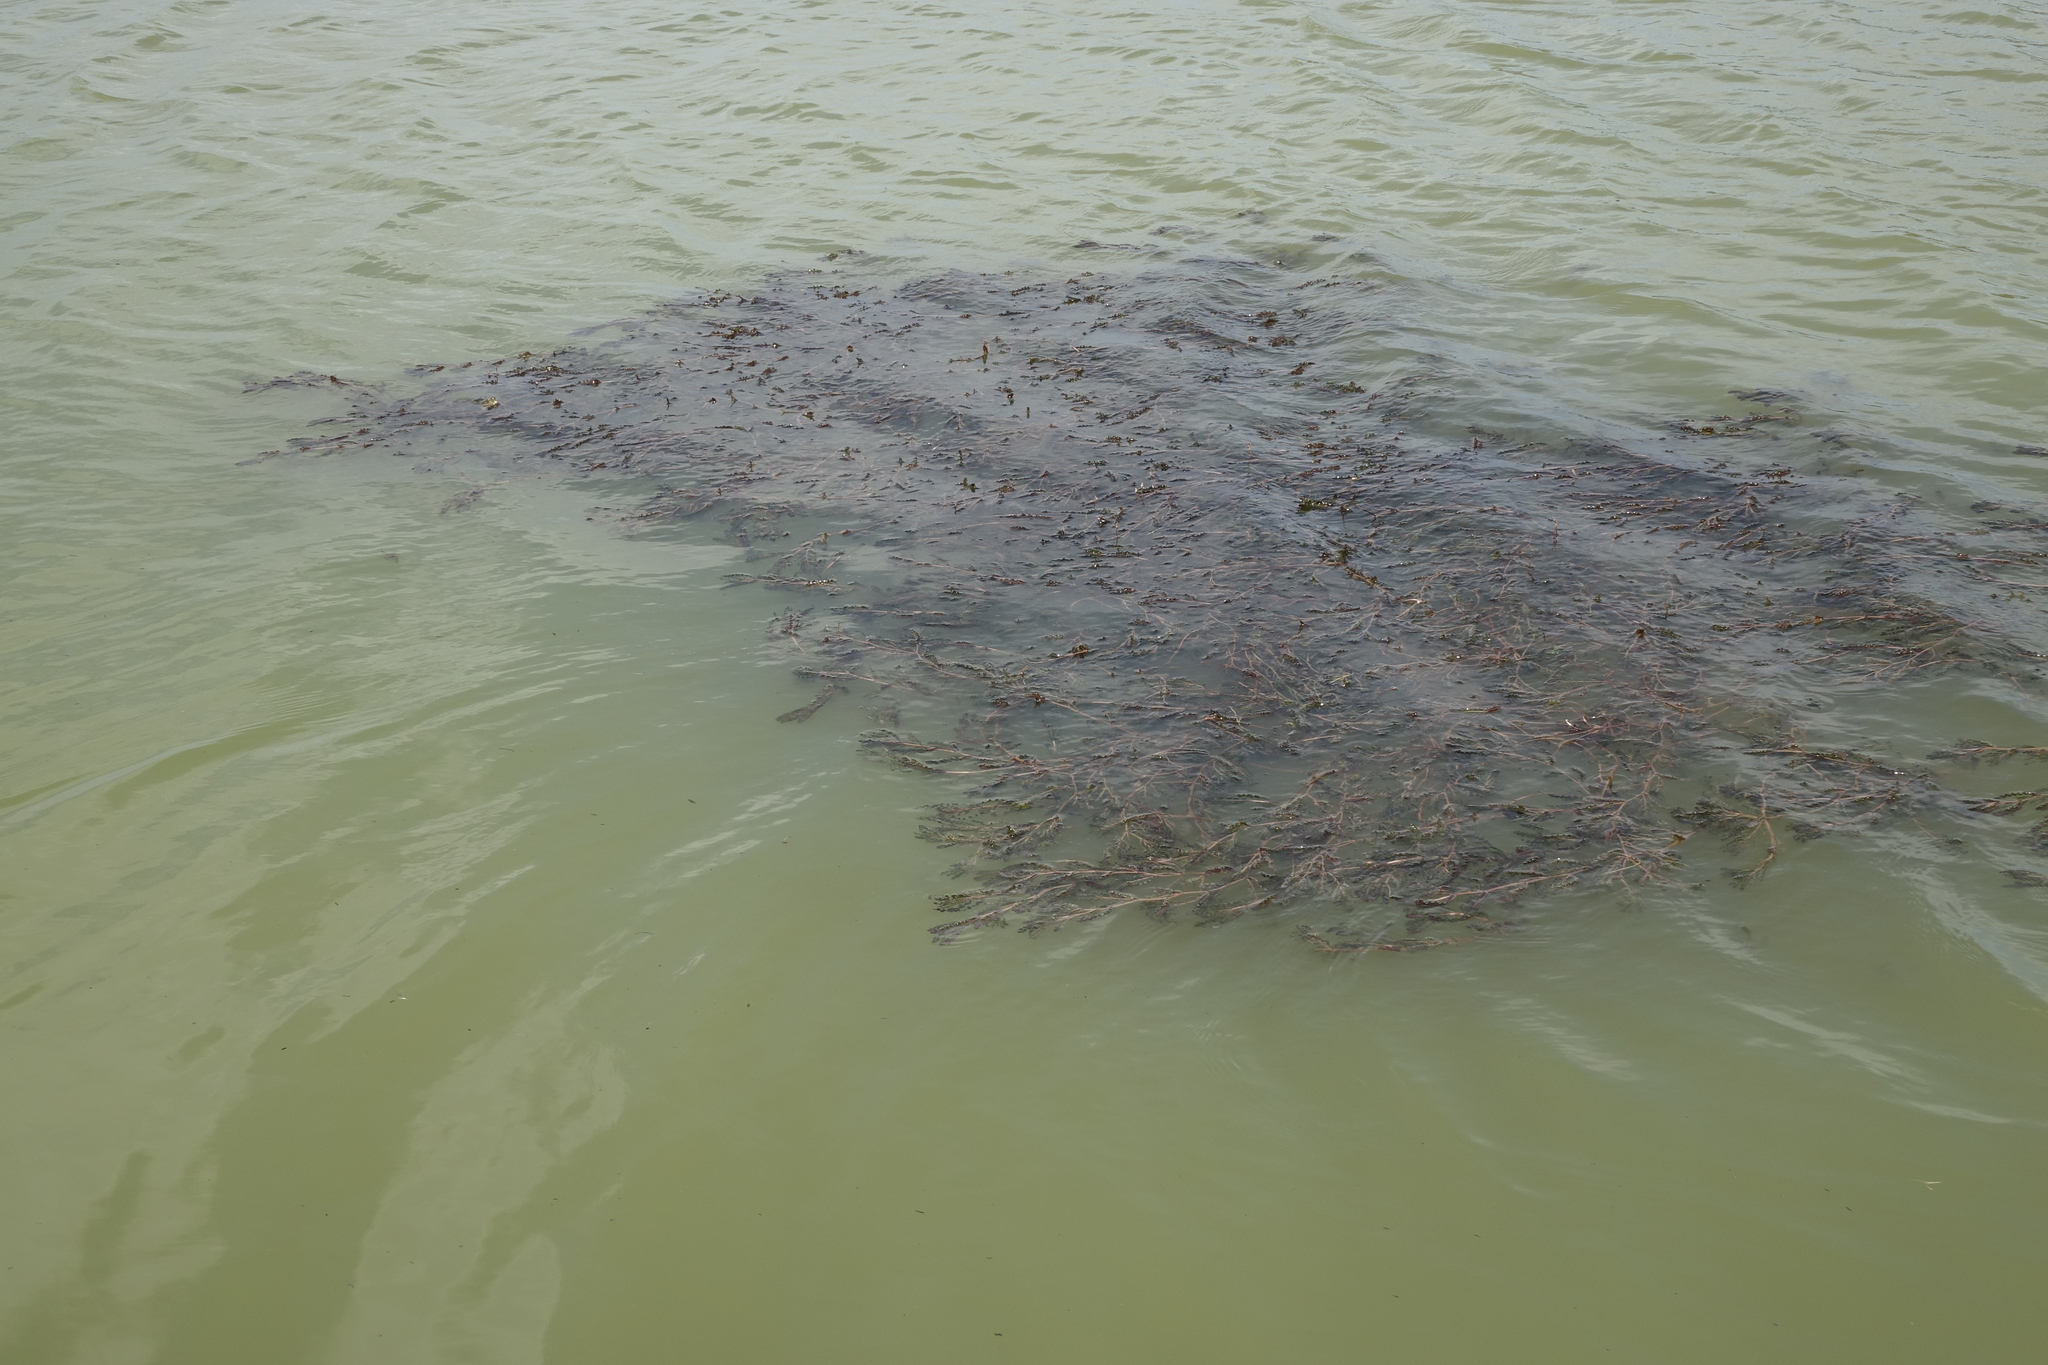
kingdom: Plantae
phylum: Tracheophyta
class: Liliopsida
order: Alismatales
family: Potamogetonaceae
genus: Potamogeton
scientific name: Potamogeton crispus
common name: Curled pondweed
